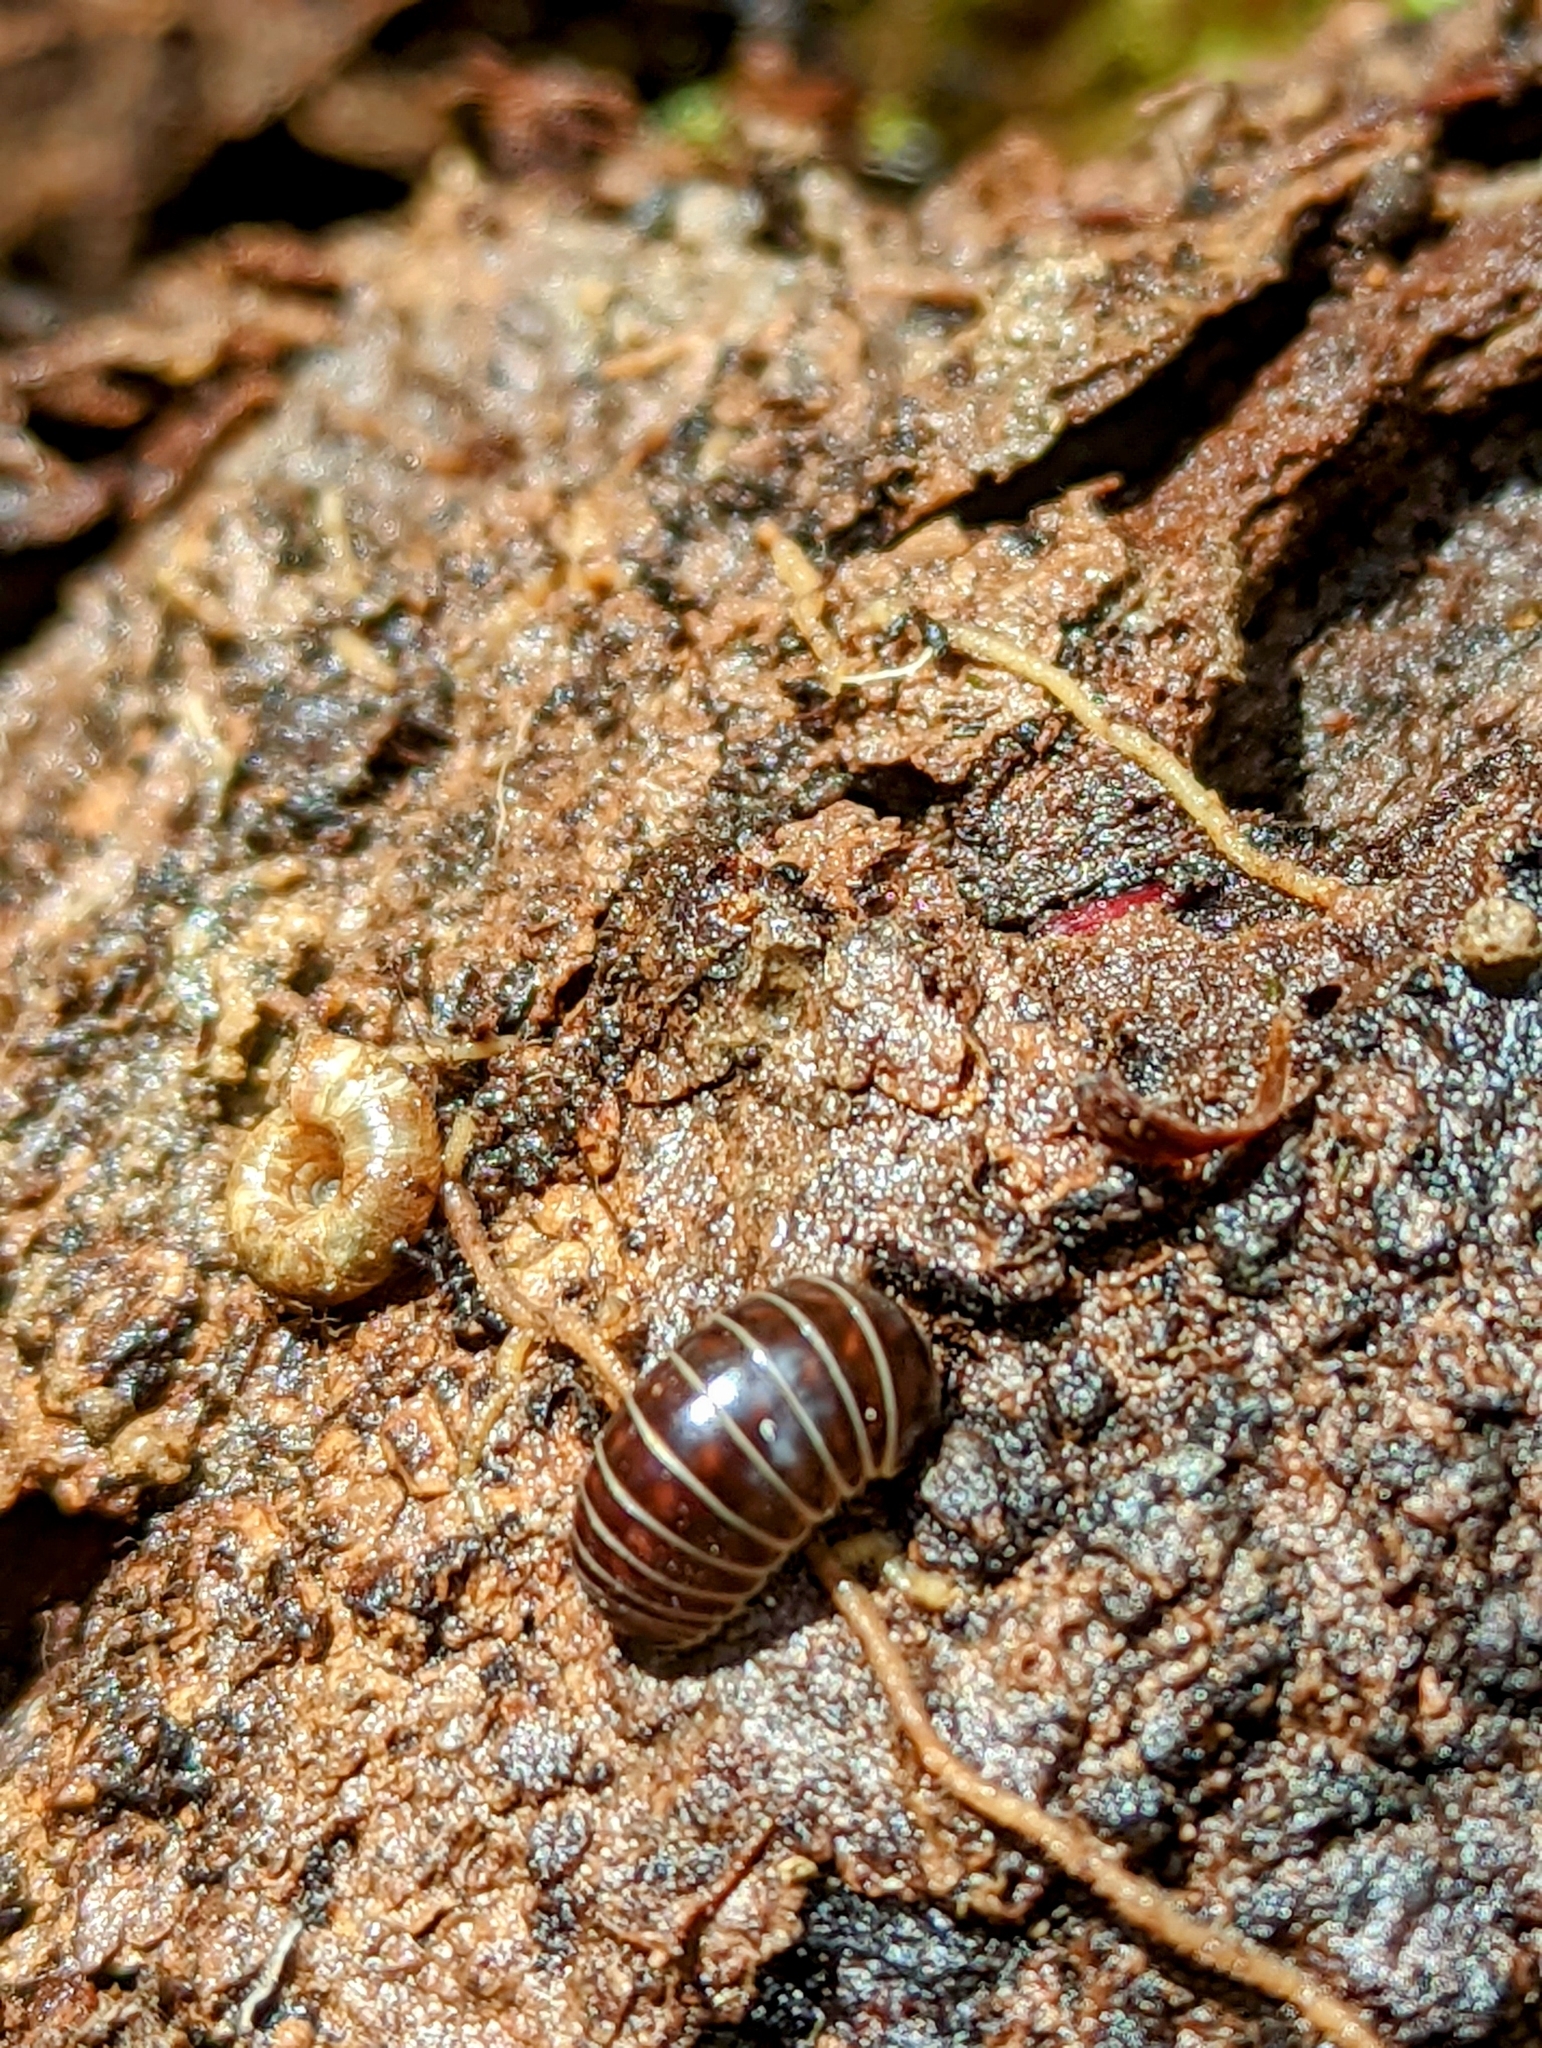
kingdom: Animalia
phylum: Arthropoda
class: Diplopoda
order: Glomerida
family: Glomeridae
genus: Glomeris
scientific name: Glomeris marginata
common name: Bordered pill millipede
